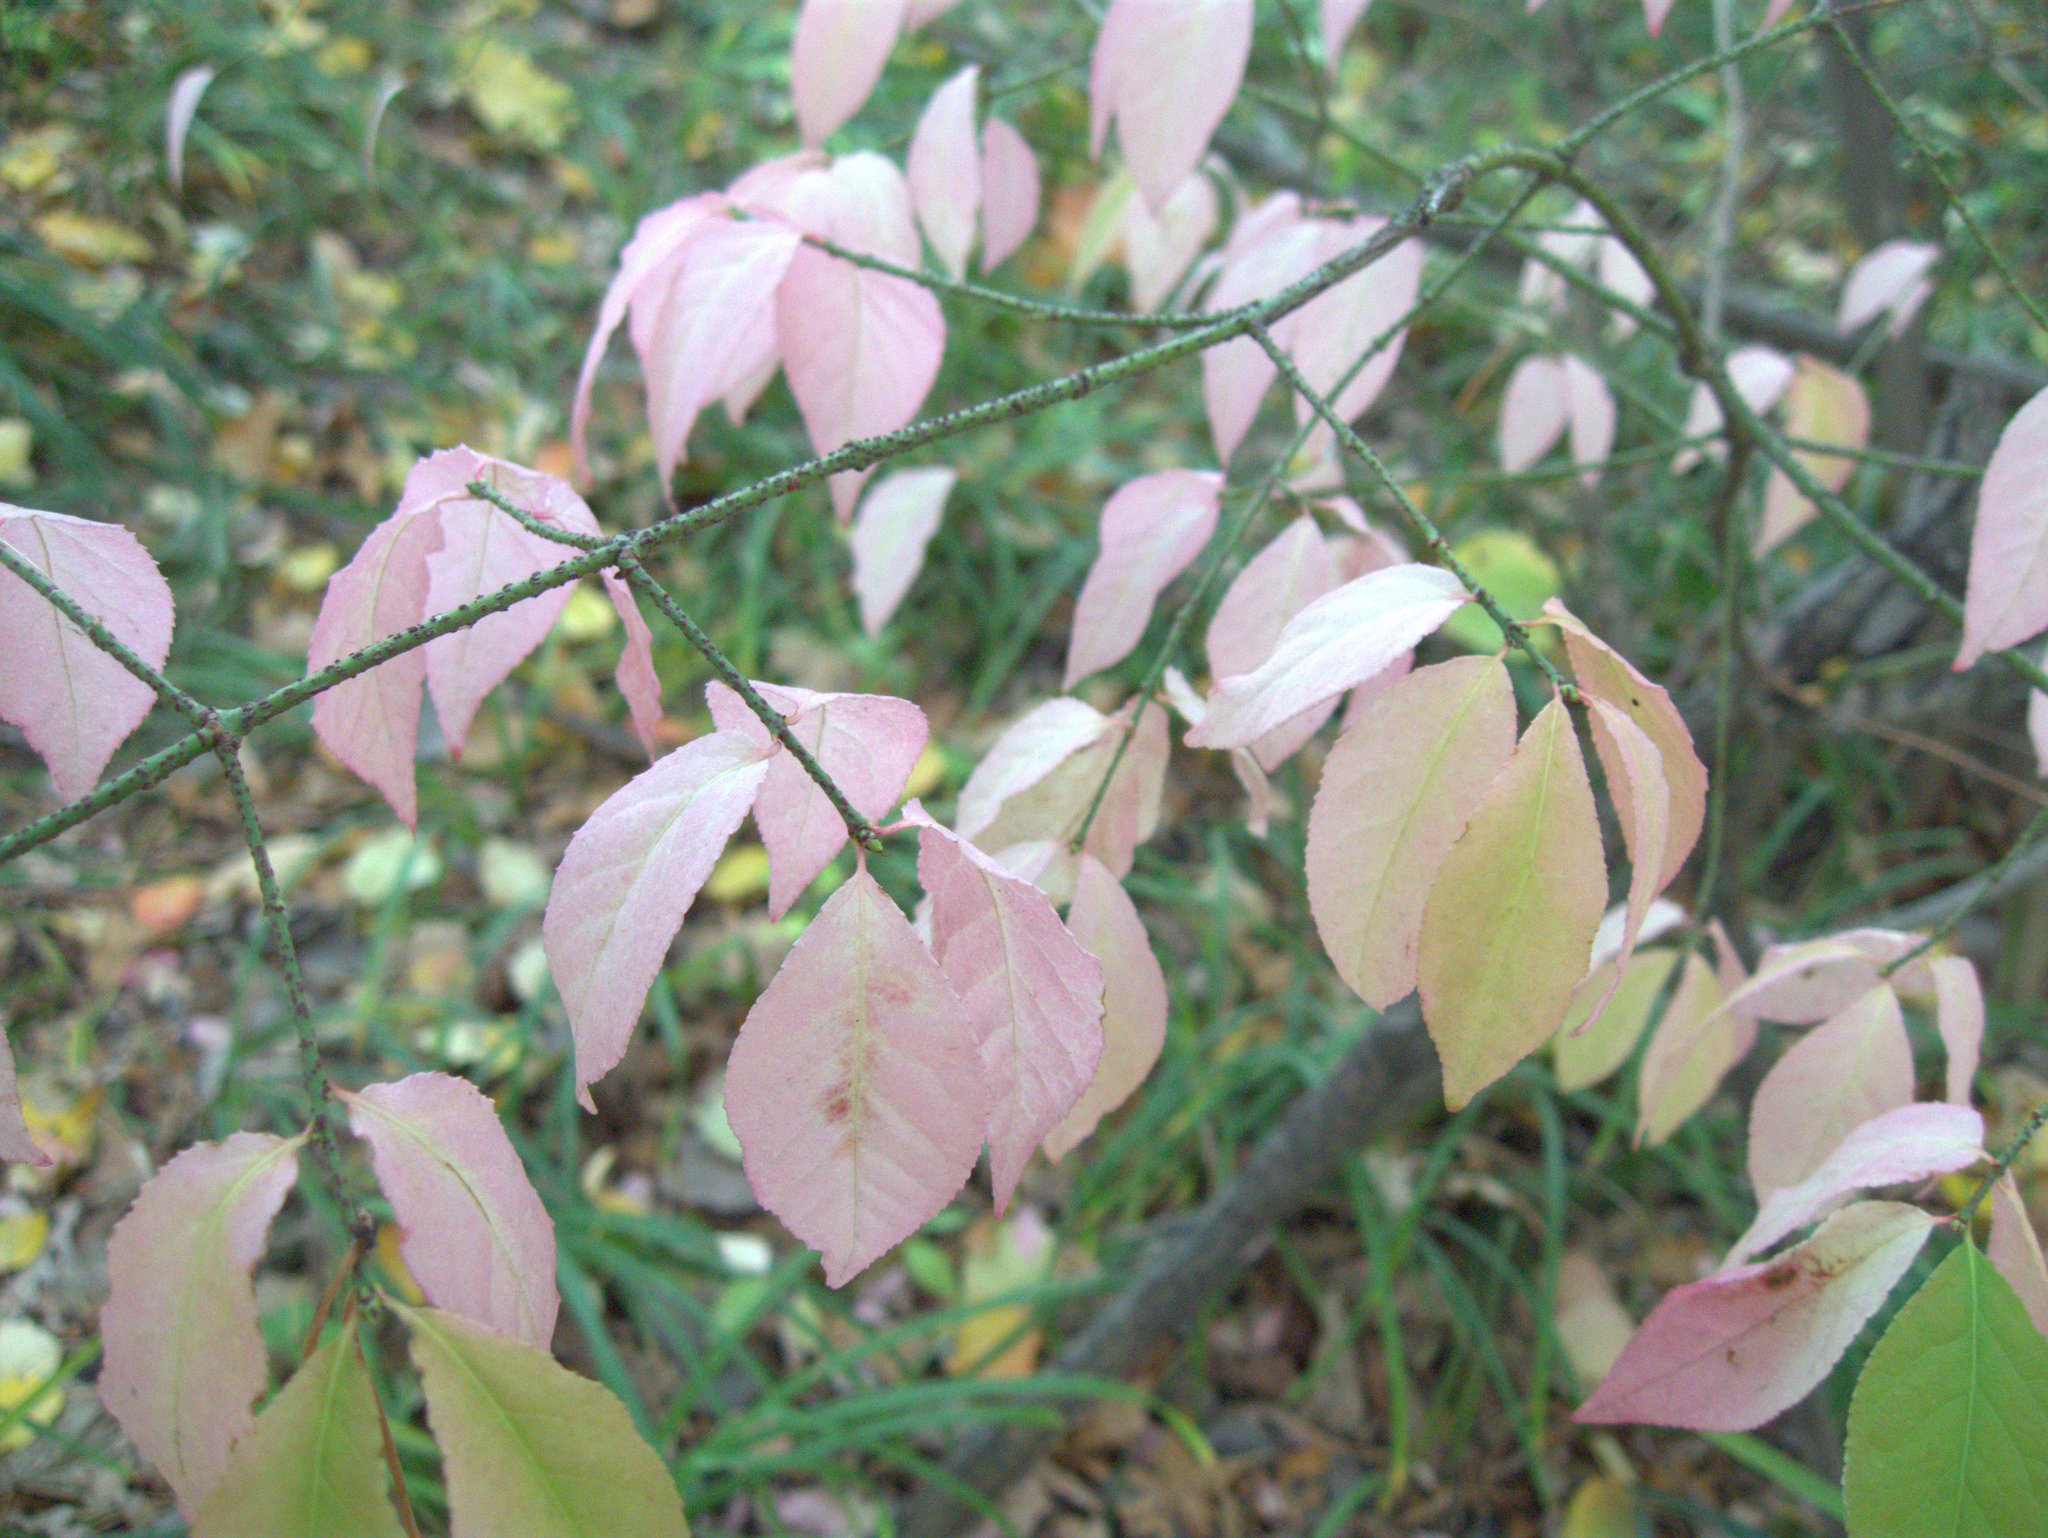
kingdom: Plantae
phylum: Tracheophyta
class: Magnoliopsida
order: Celastrales
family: Celastraceae
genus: Euonymus
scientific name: Euonymus verrucosus
